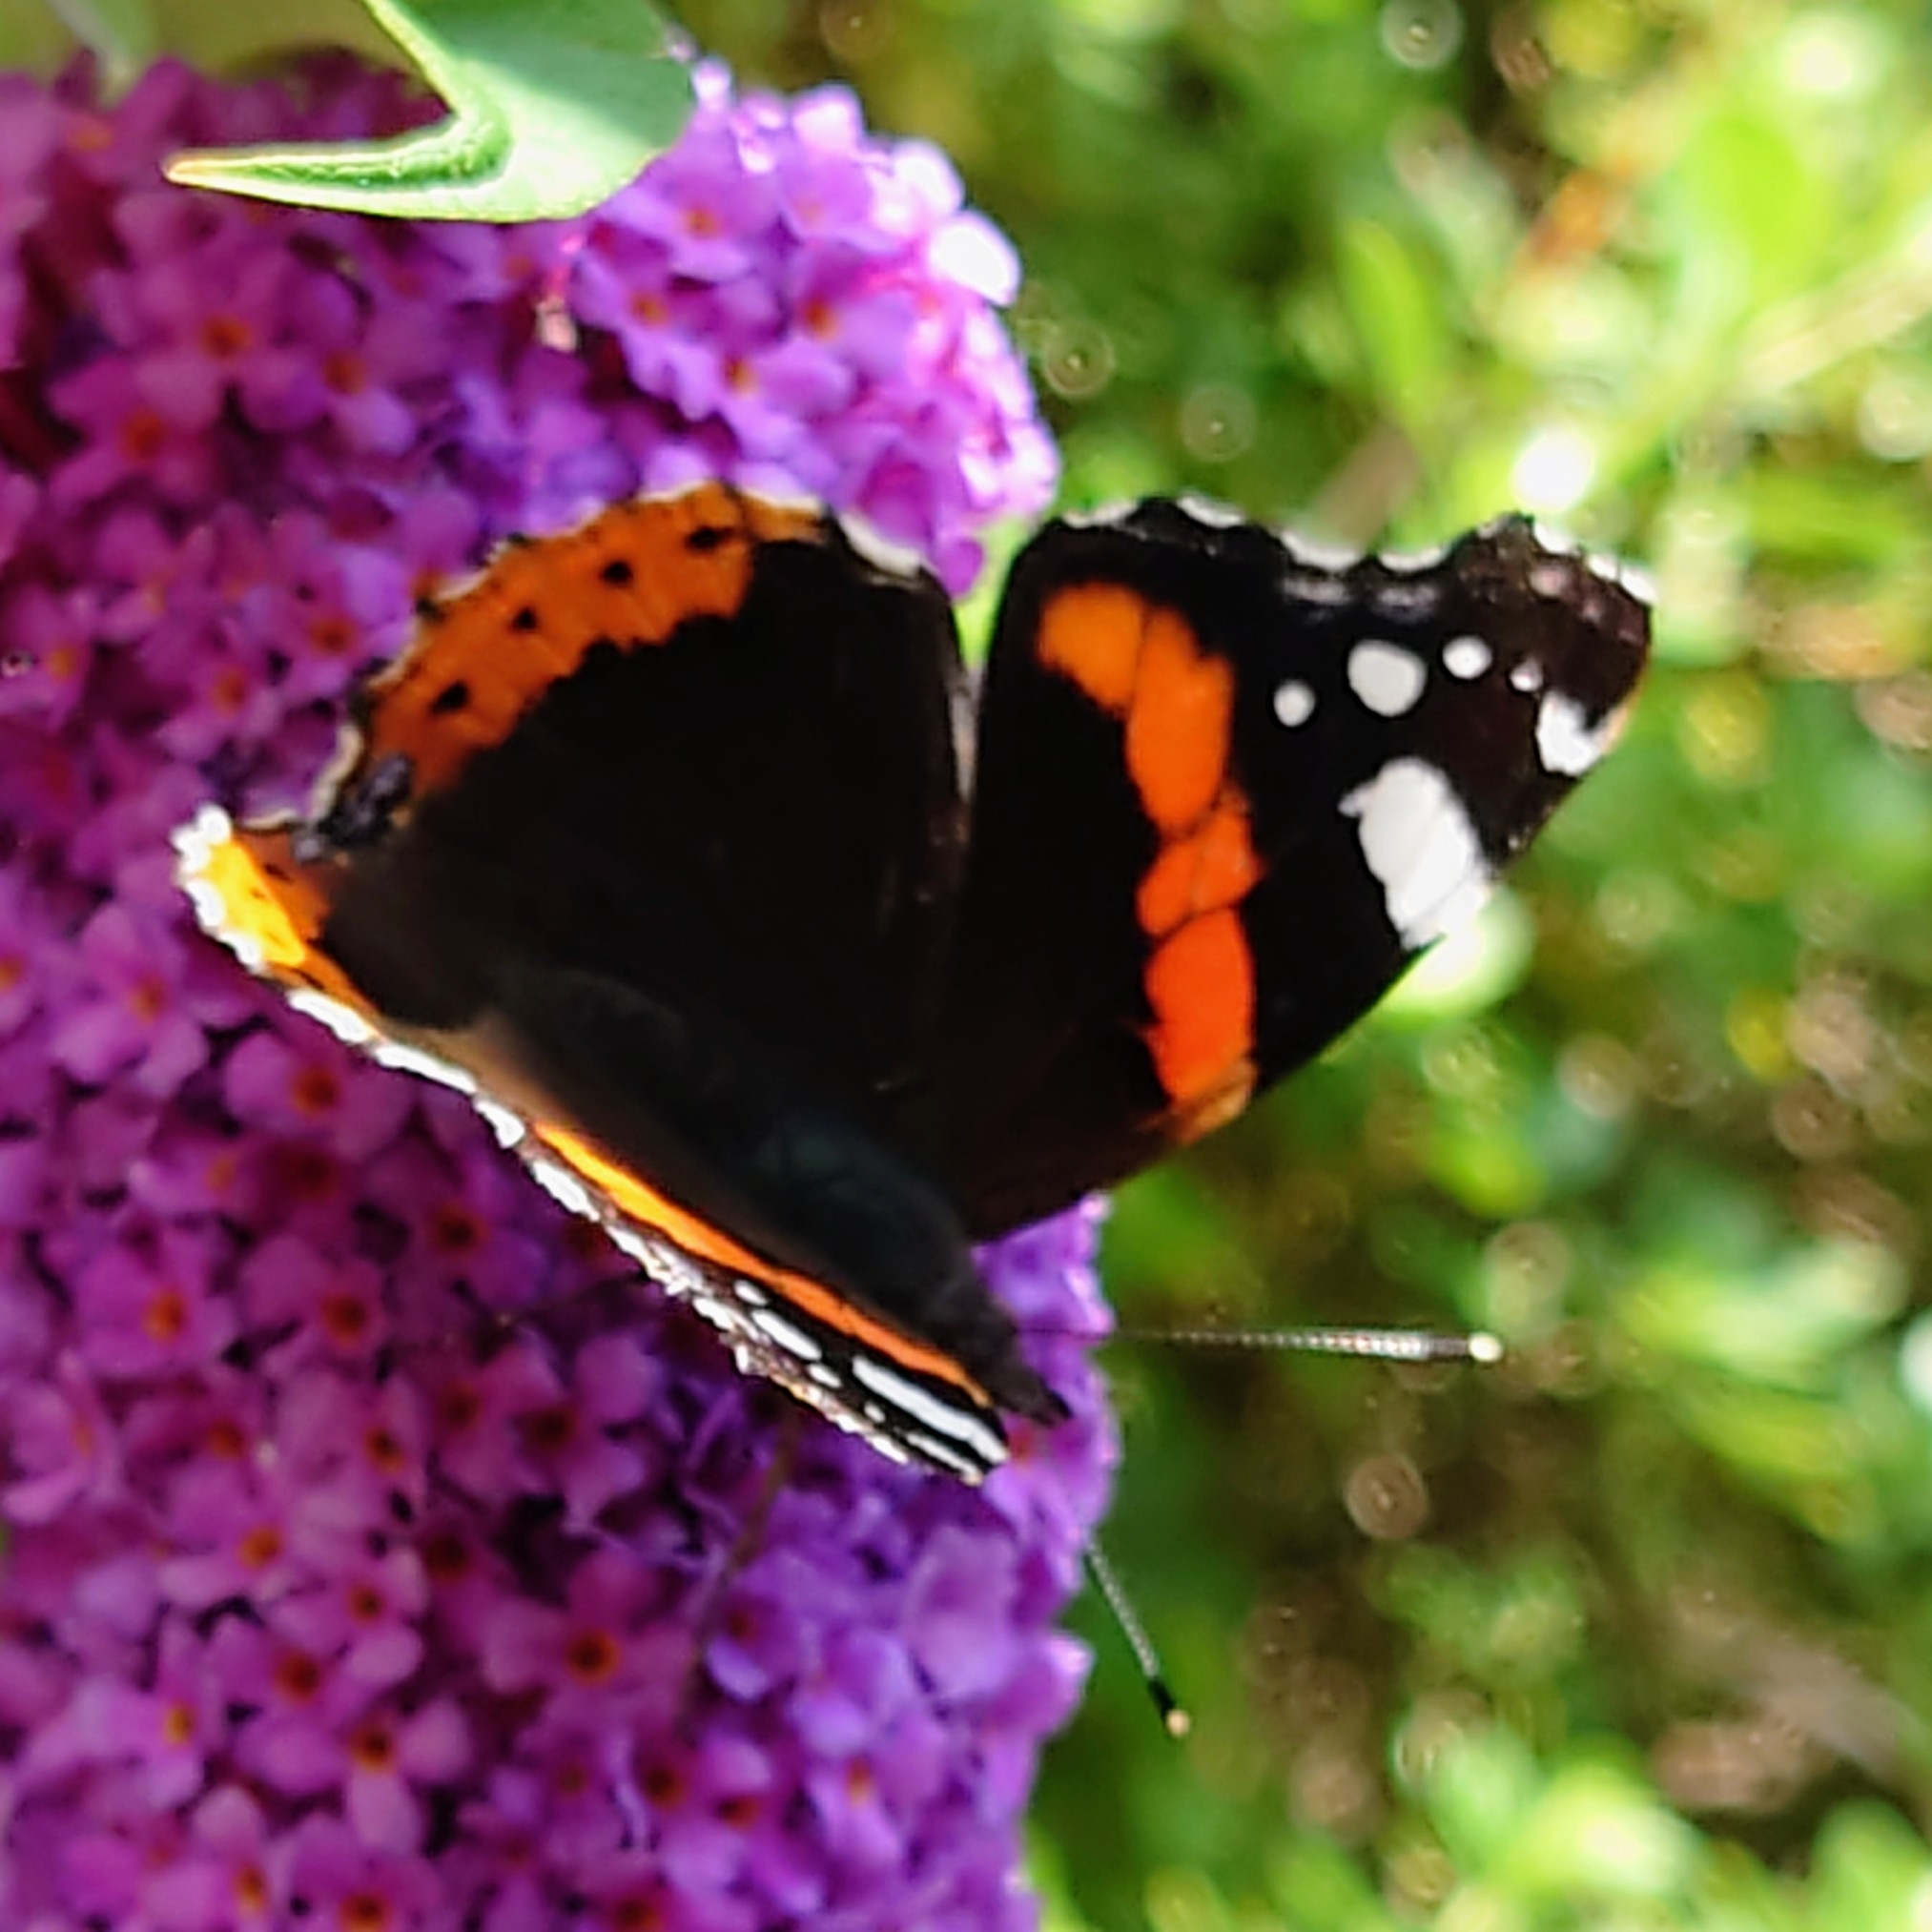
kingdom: Animalia
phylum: Arthropoda
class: Insecta
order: Lepidoptera
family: Nymphalidae
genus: Vanessa
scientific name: Vanessa atalanta
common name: Red admiral
